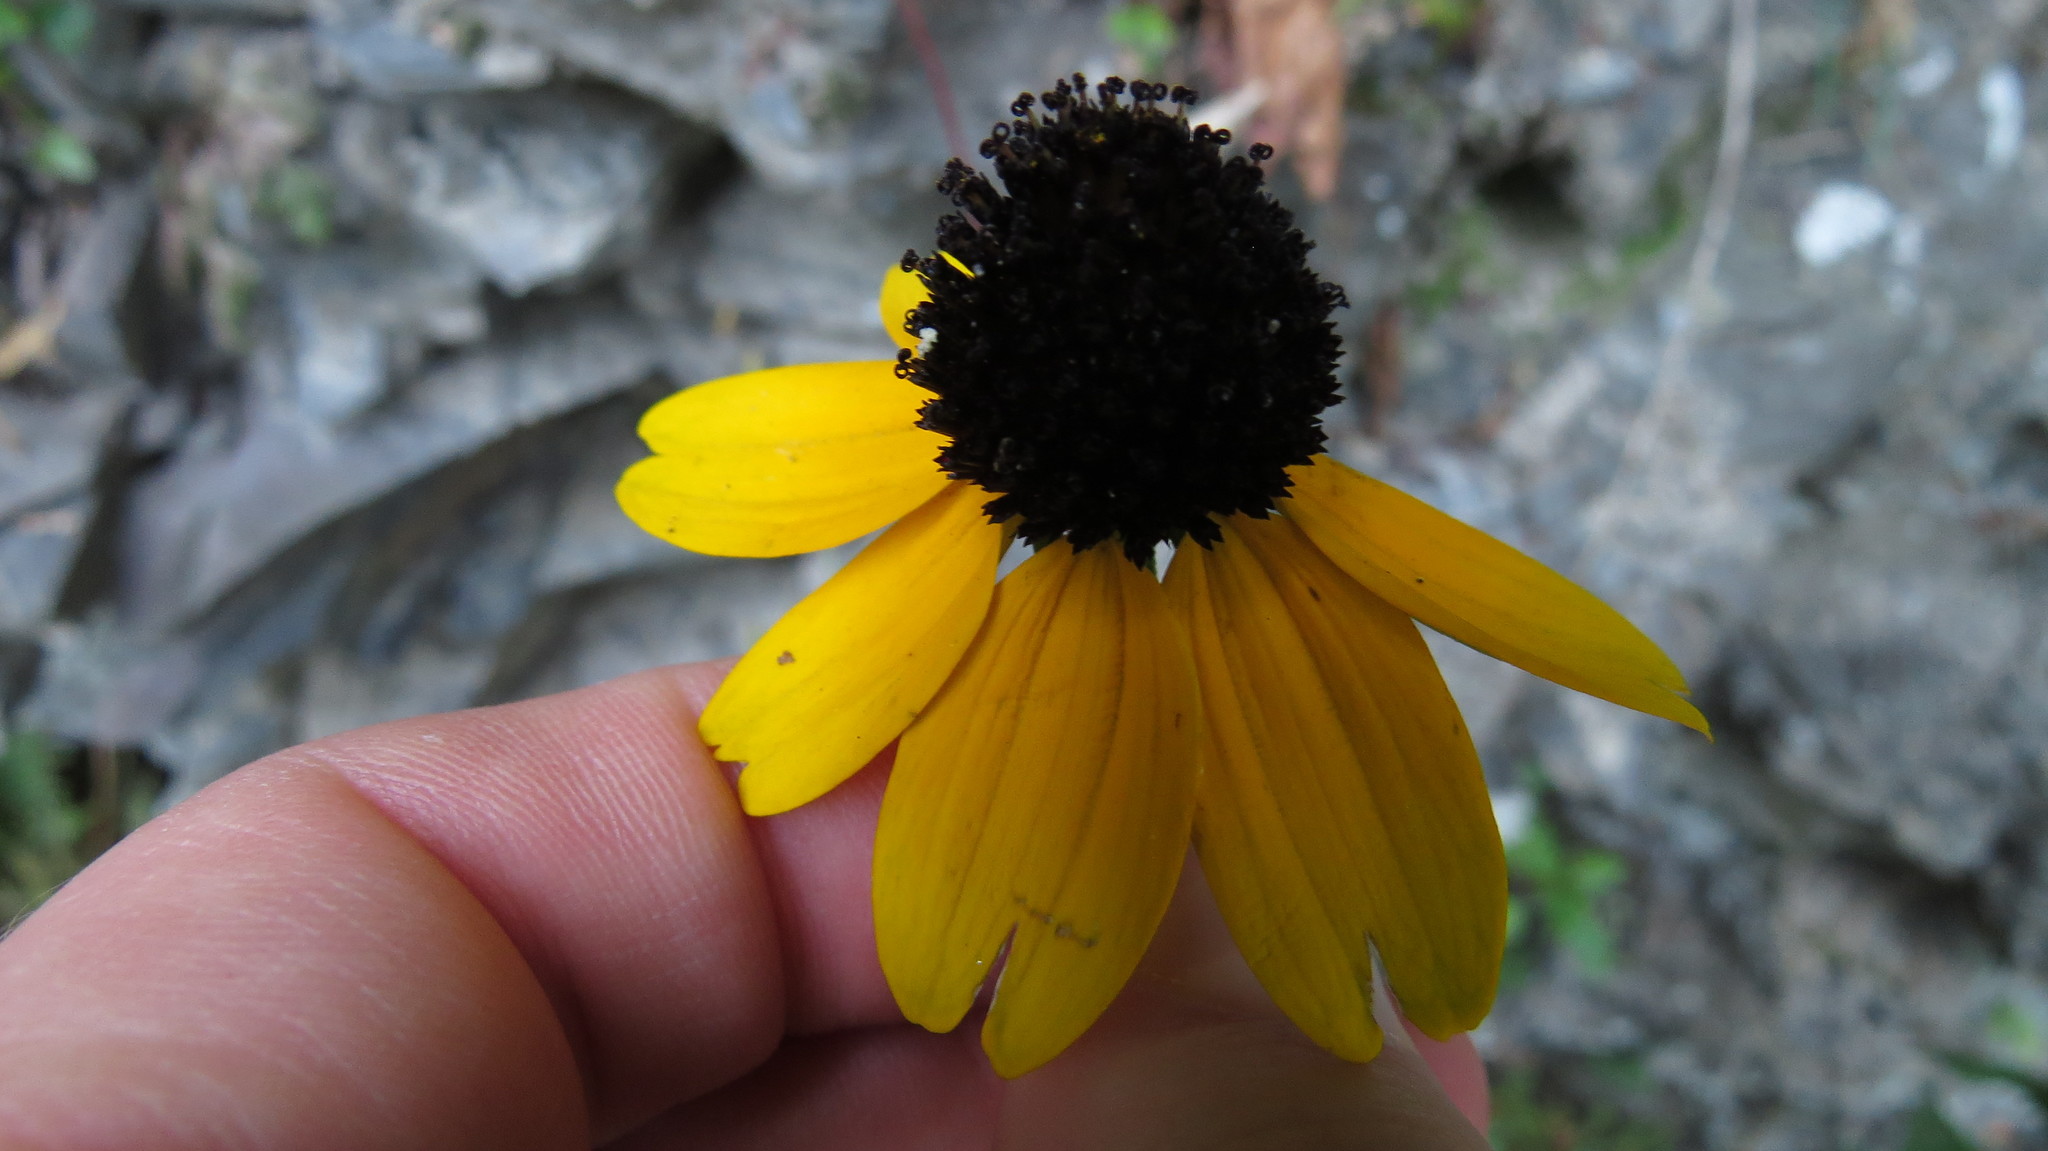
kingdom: Plantae
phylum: Tracheophyta
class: Magnoliopsida
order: Asterales
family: Asteraceae
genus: Rudbeckia
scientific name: Rudbeckia triloba
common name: Thin-leaved coneflower
